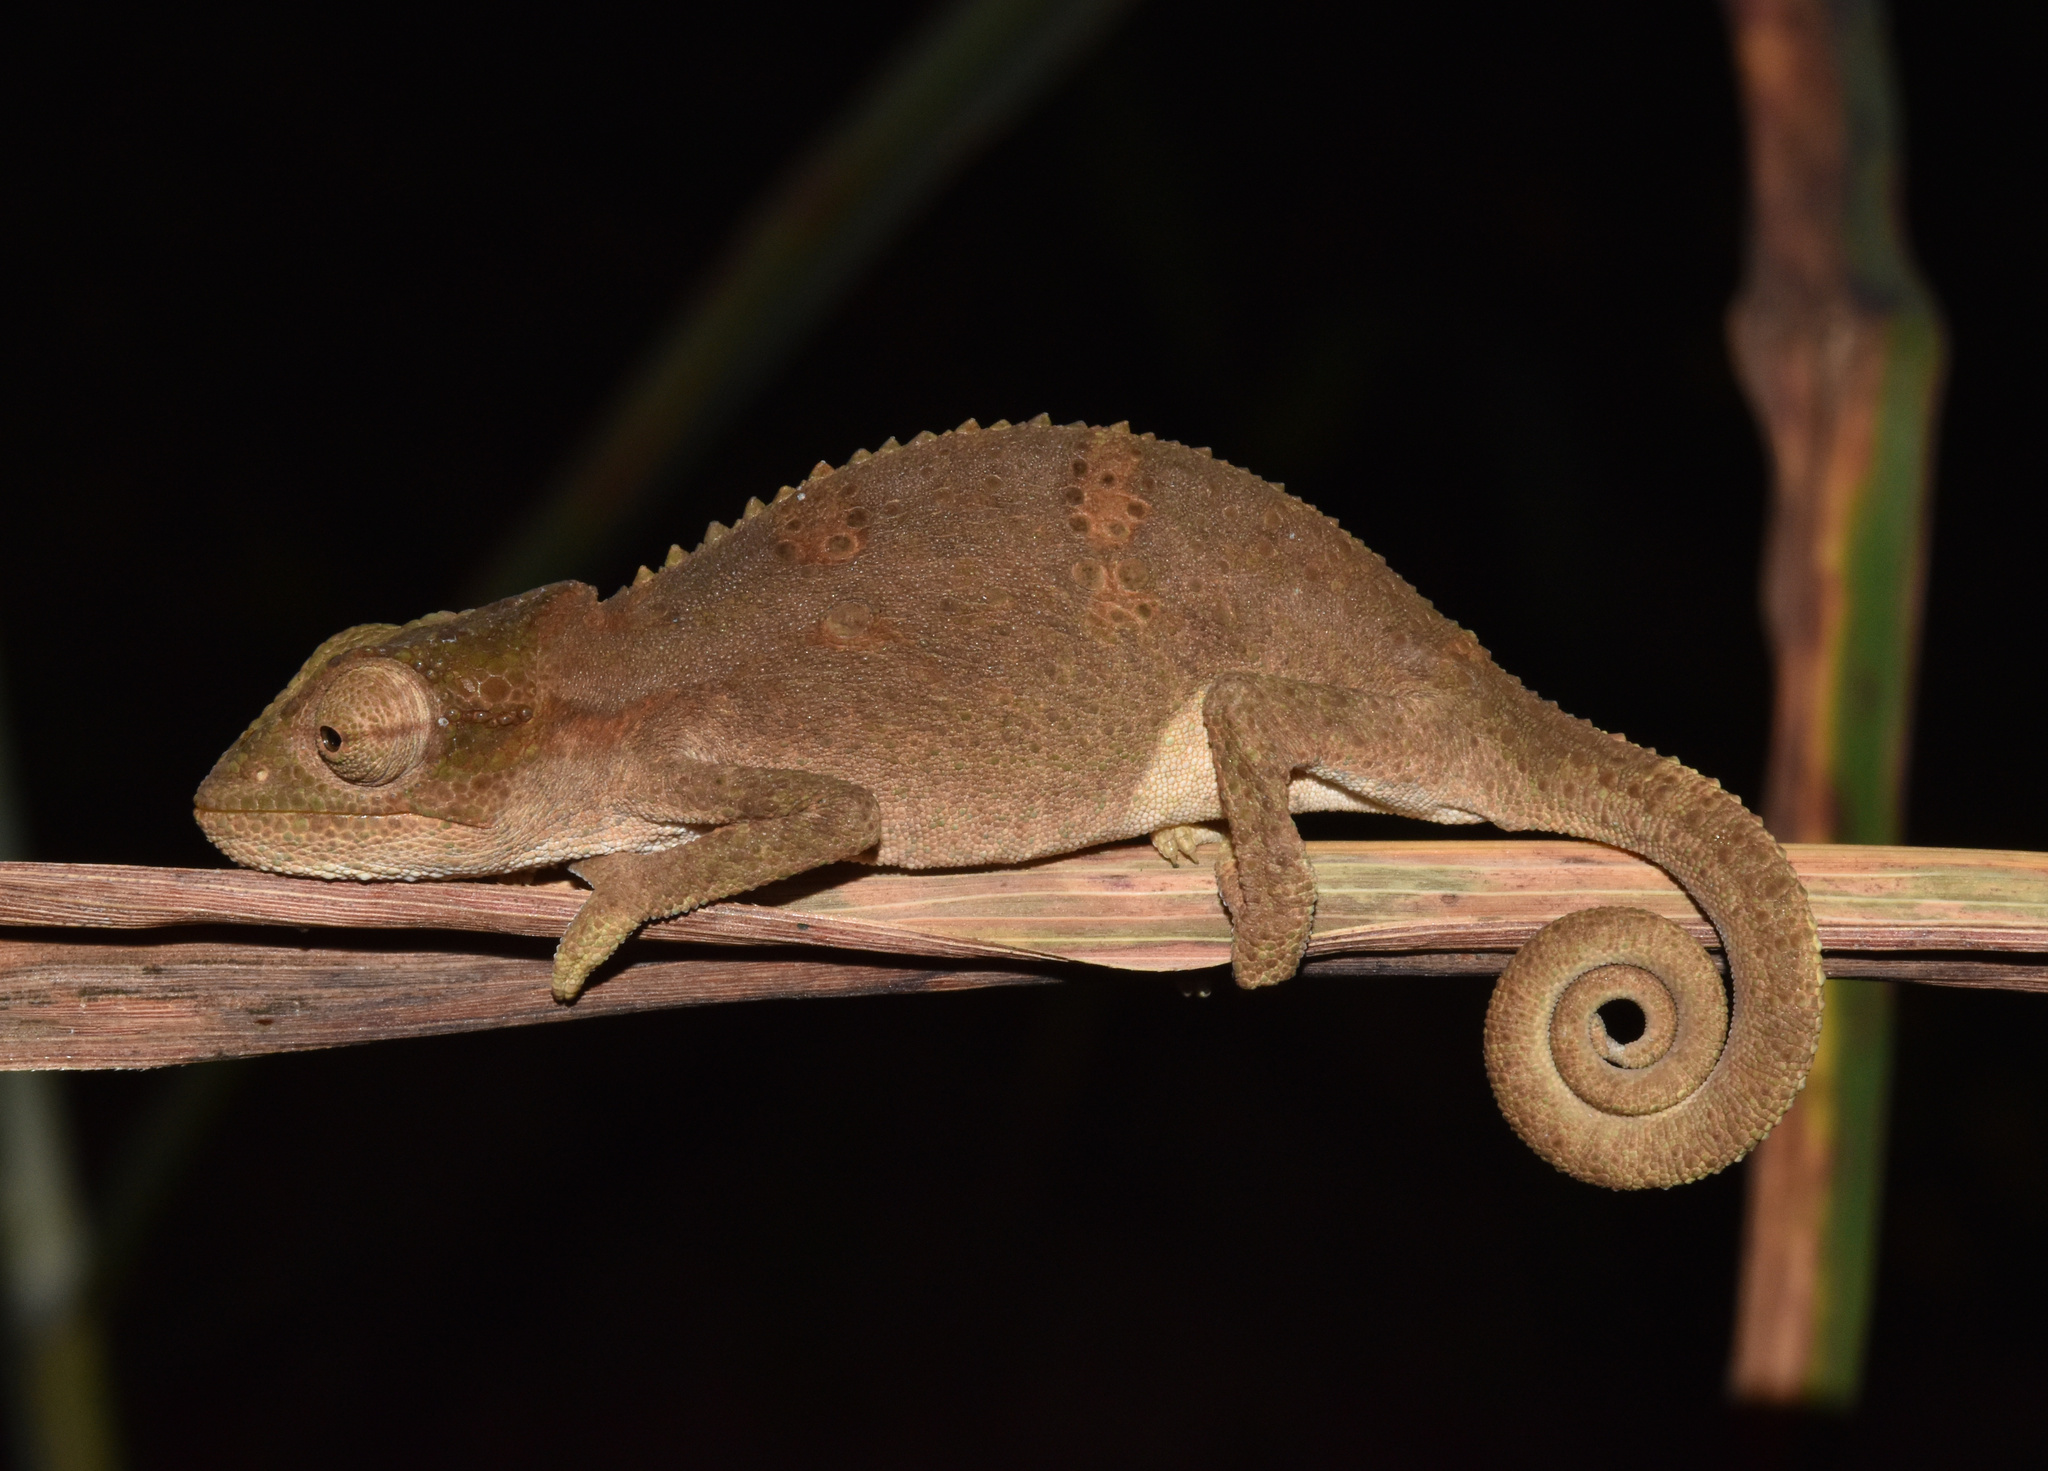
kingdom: Animalia
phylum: Chordata
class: Squamata
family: Chamaeleonidae
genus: Bradypodion
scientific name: Bradypodion melanocephalum
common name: Black-headed dwarf chameleon
